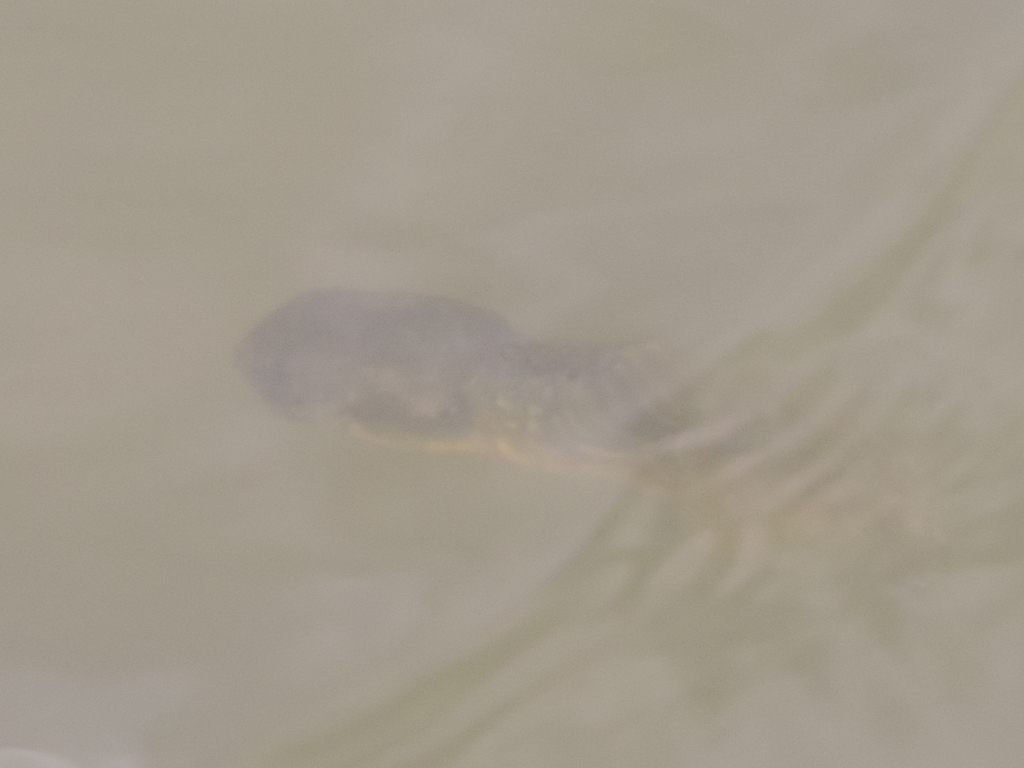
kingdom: Animalia
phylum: Chordata
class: Amphibia
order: Anura
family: Ranidae
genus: Lithobates
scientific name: Lithobates catesbeianus
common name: American bullfrog
